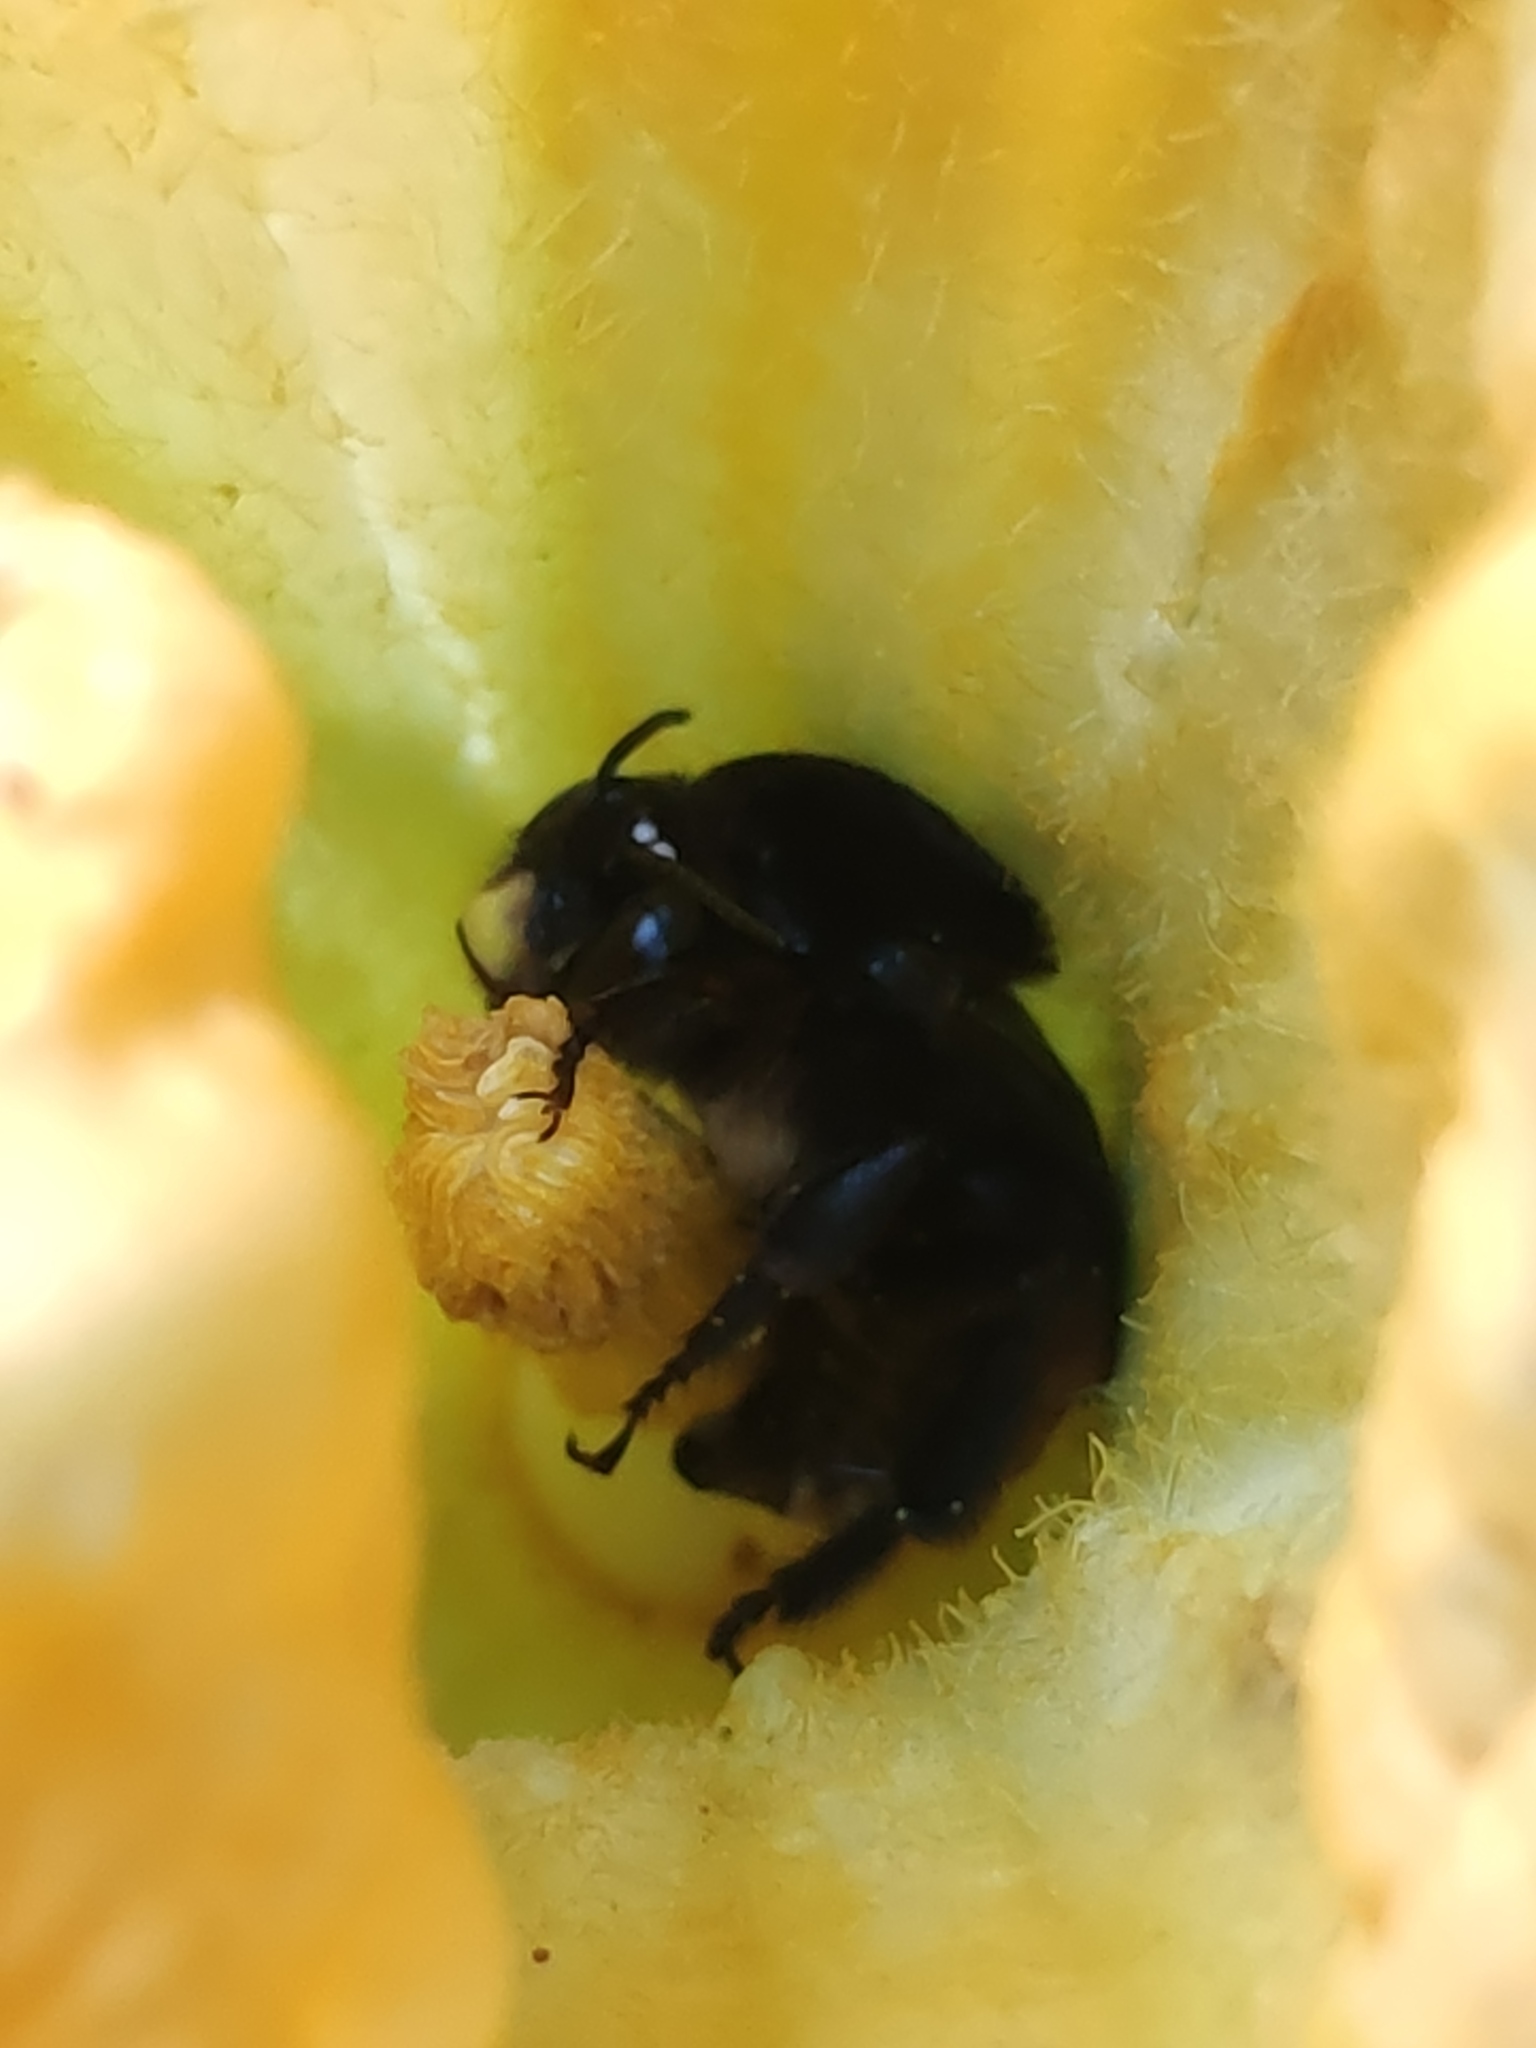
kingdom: Animalia
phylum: Arthropoda
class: Insecta
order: Hymenoptera
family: Apidae
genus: Xenoglossa
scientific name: Xenoglossa gabbii
